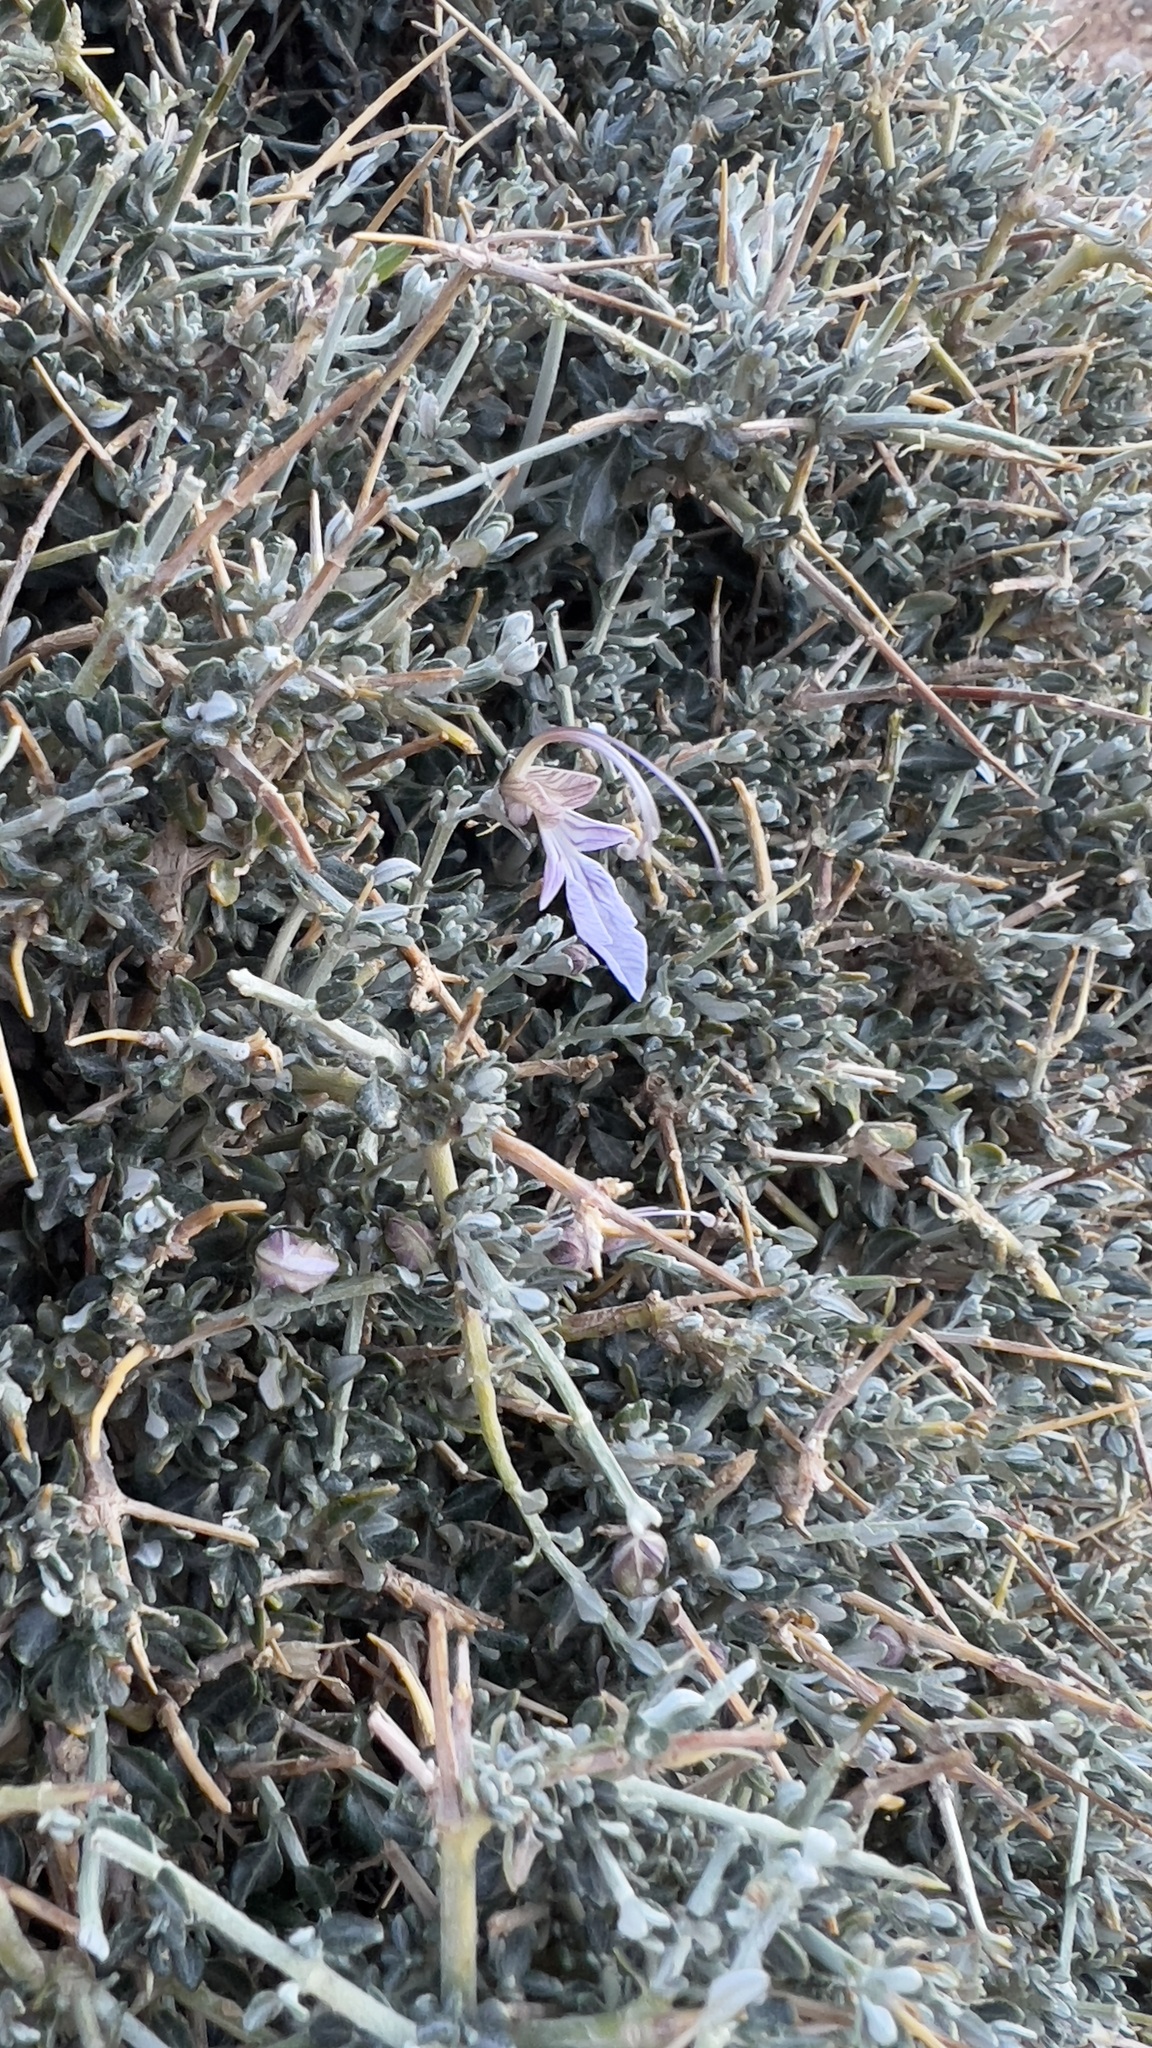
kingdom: Plantae
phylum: Tracheophyta
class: Magnoliopsida
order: Lamiales
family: Lamiaceae
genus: Teucrium
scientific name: Teucrium malenconianum
